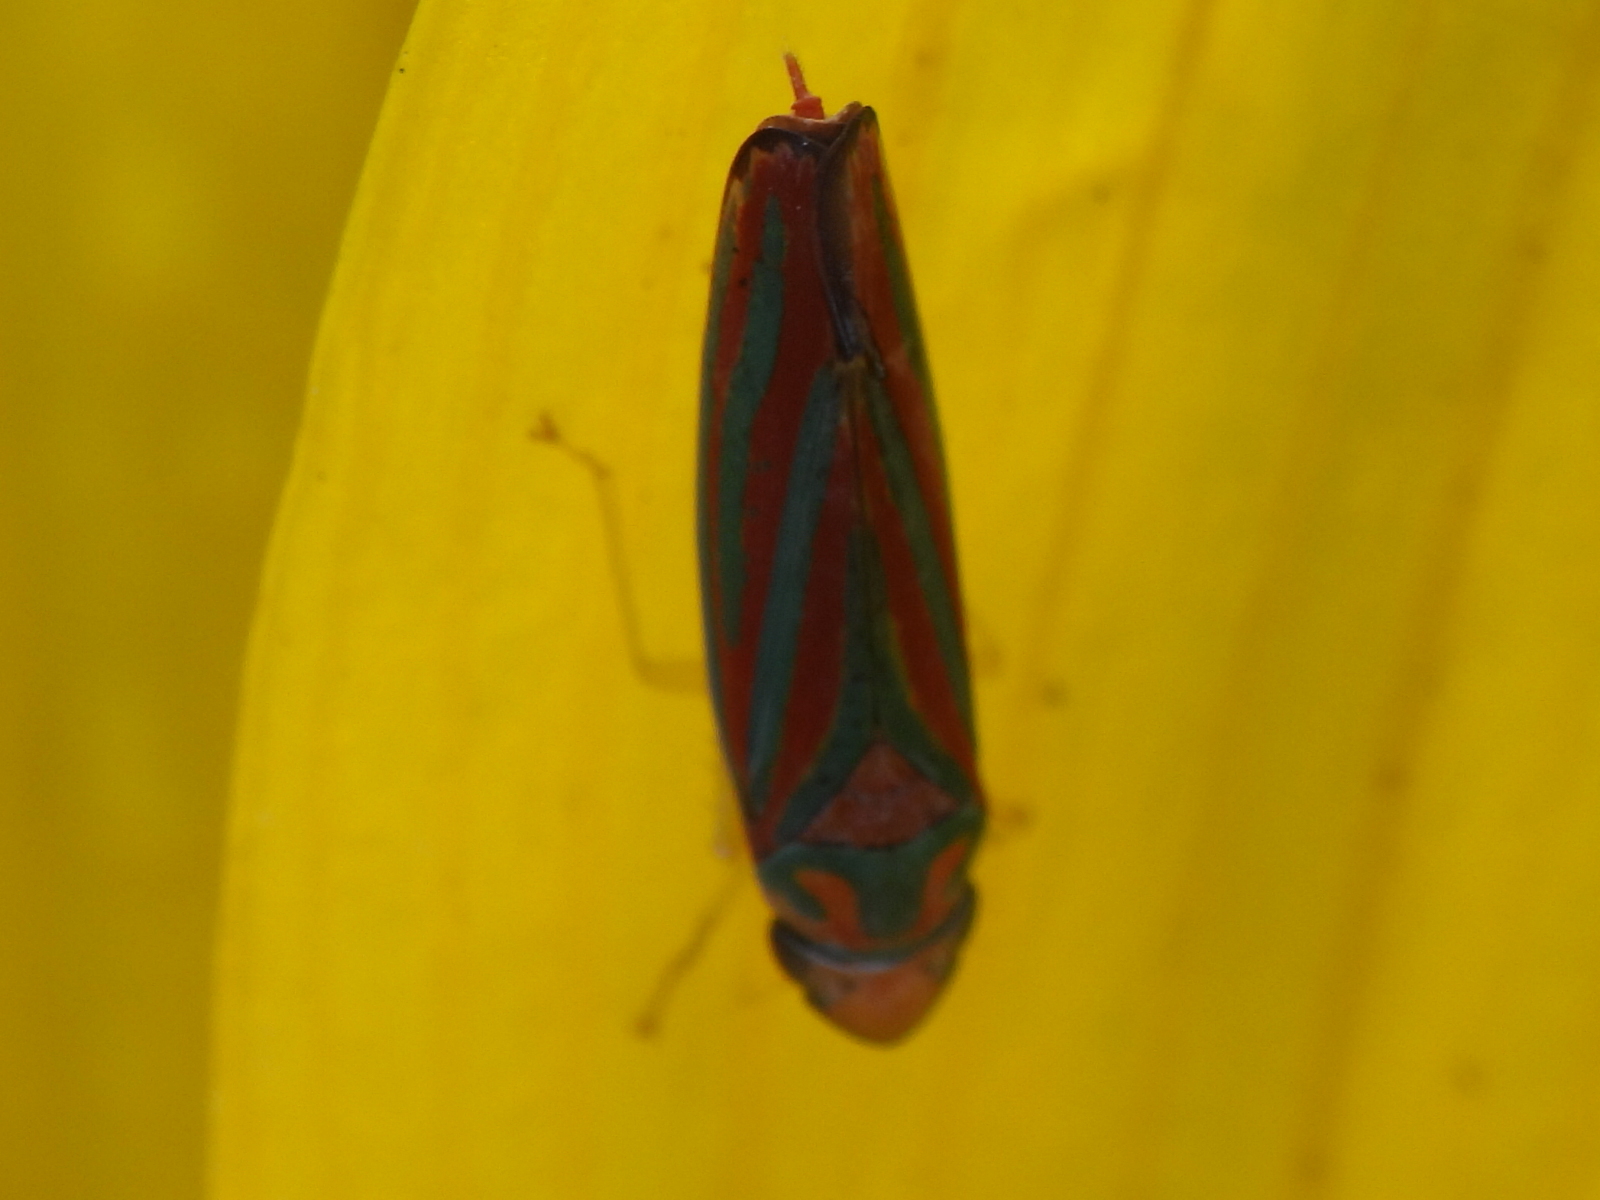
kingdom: Animalia
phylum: Arthropoda
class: Insecta
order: Hemiptera
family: Cicadellidae
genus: Graphocephala
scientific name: Graphocephala coccinea
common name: Candy-striped leafhopper
